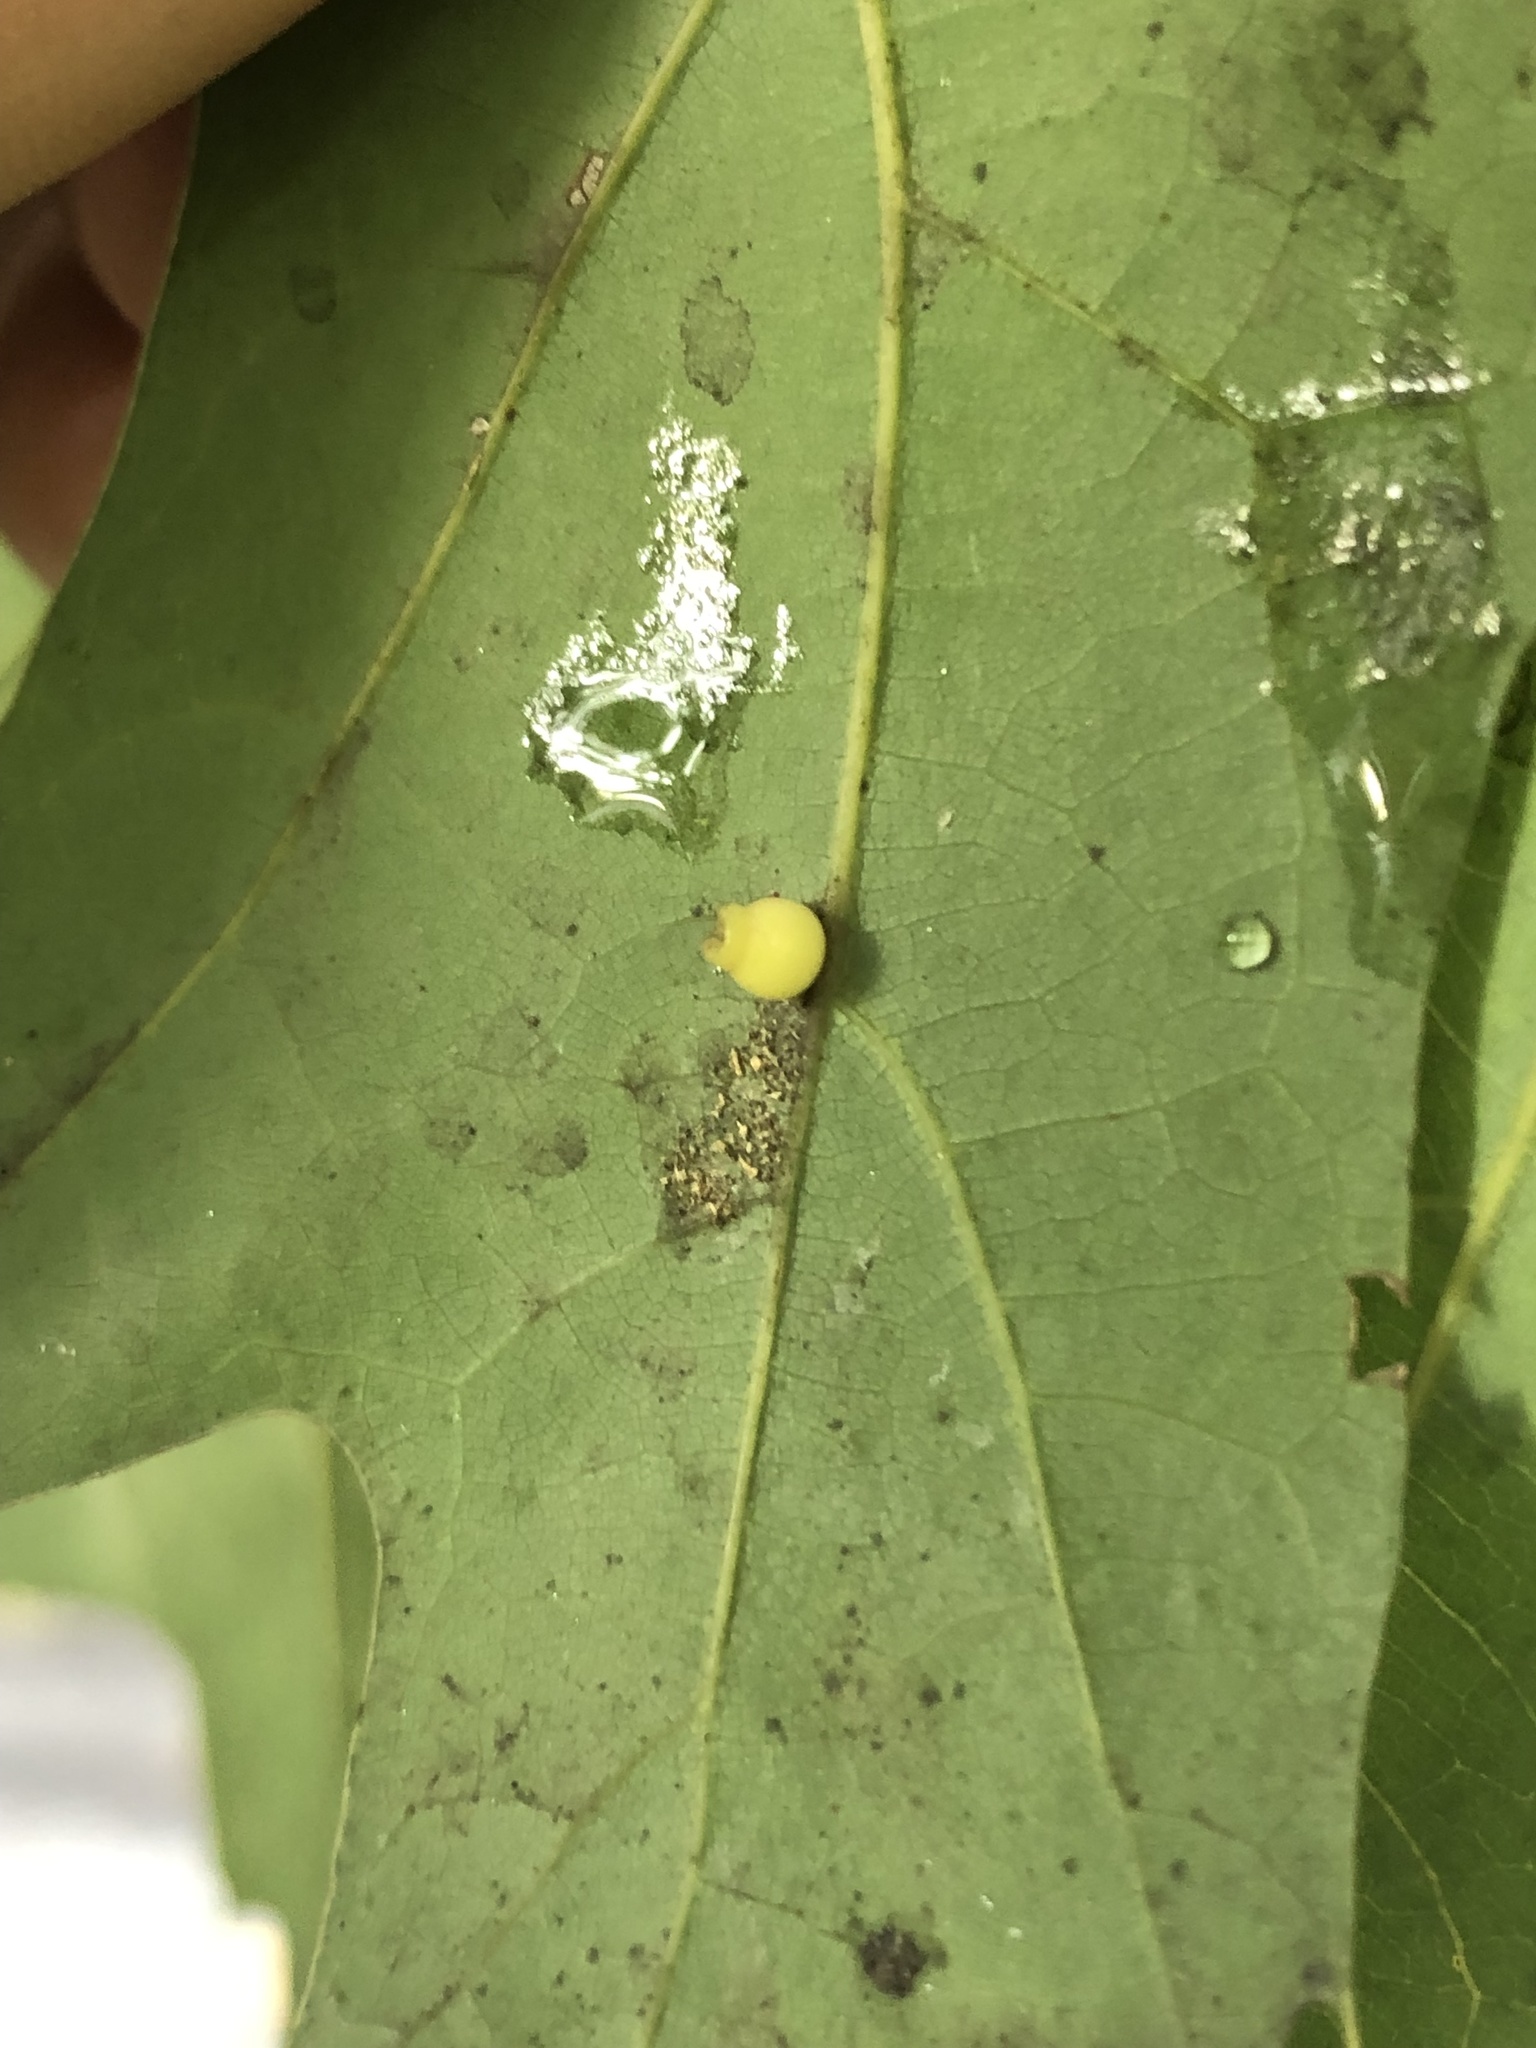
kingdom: Animalia
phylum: Arthropoda
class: Insecta
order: Hymenoptera
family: Cynipidae
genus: Kokkocynips
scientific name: Kokkocynips rileyi
